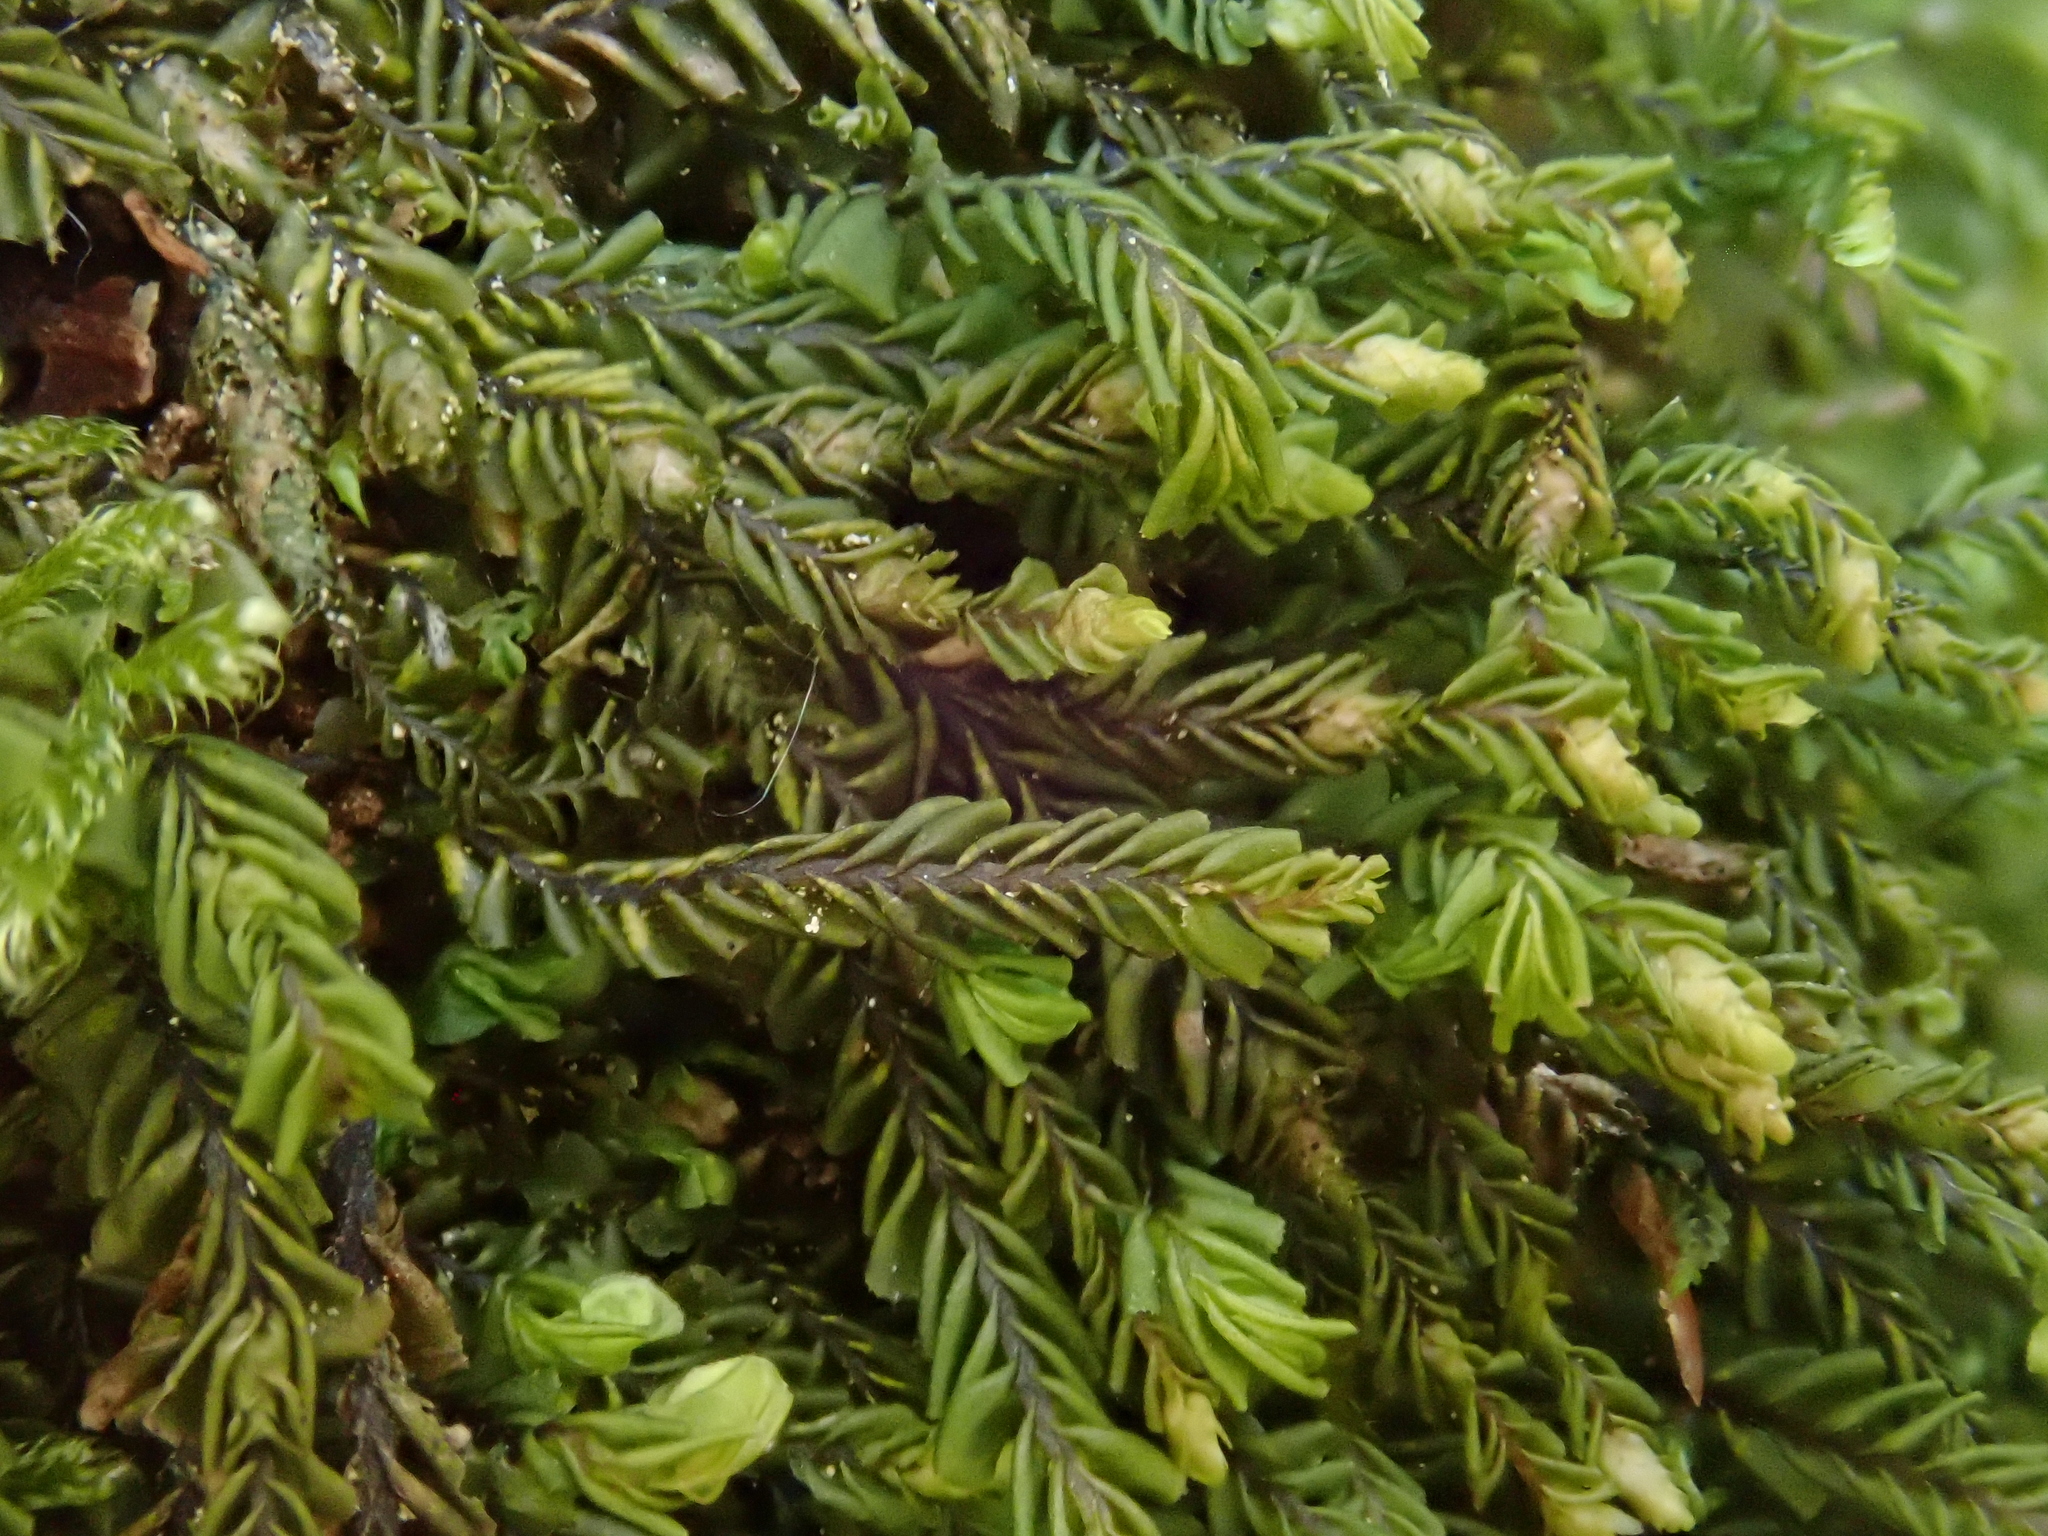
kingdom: Plantae
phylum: Marchantiophyta
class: Jungermanniopsida
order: Jungermanniales
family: Plagiochilaceae
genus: Plagiochila
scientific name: Plagiochila porelloides
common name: Lesser featherwort
